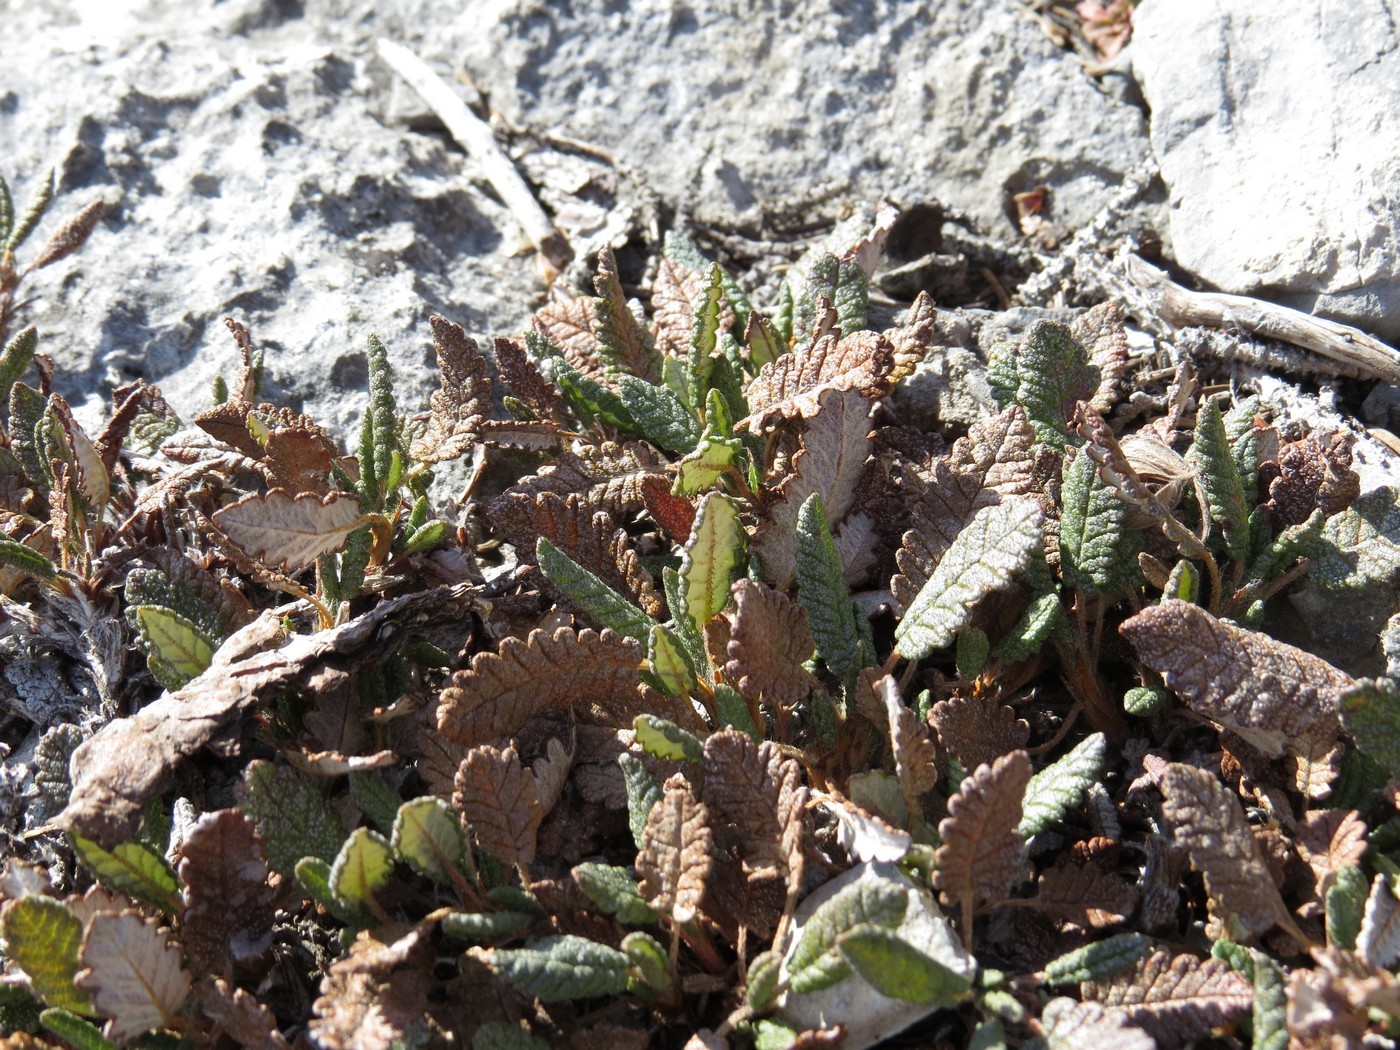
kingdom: Plantae
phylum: Tracheophyta
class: Magnoliopsida
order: Rosales
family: Rosaceae
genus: Dryas
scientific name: Dryas octopetala
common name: Eight-petal mountain-avens
